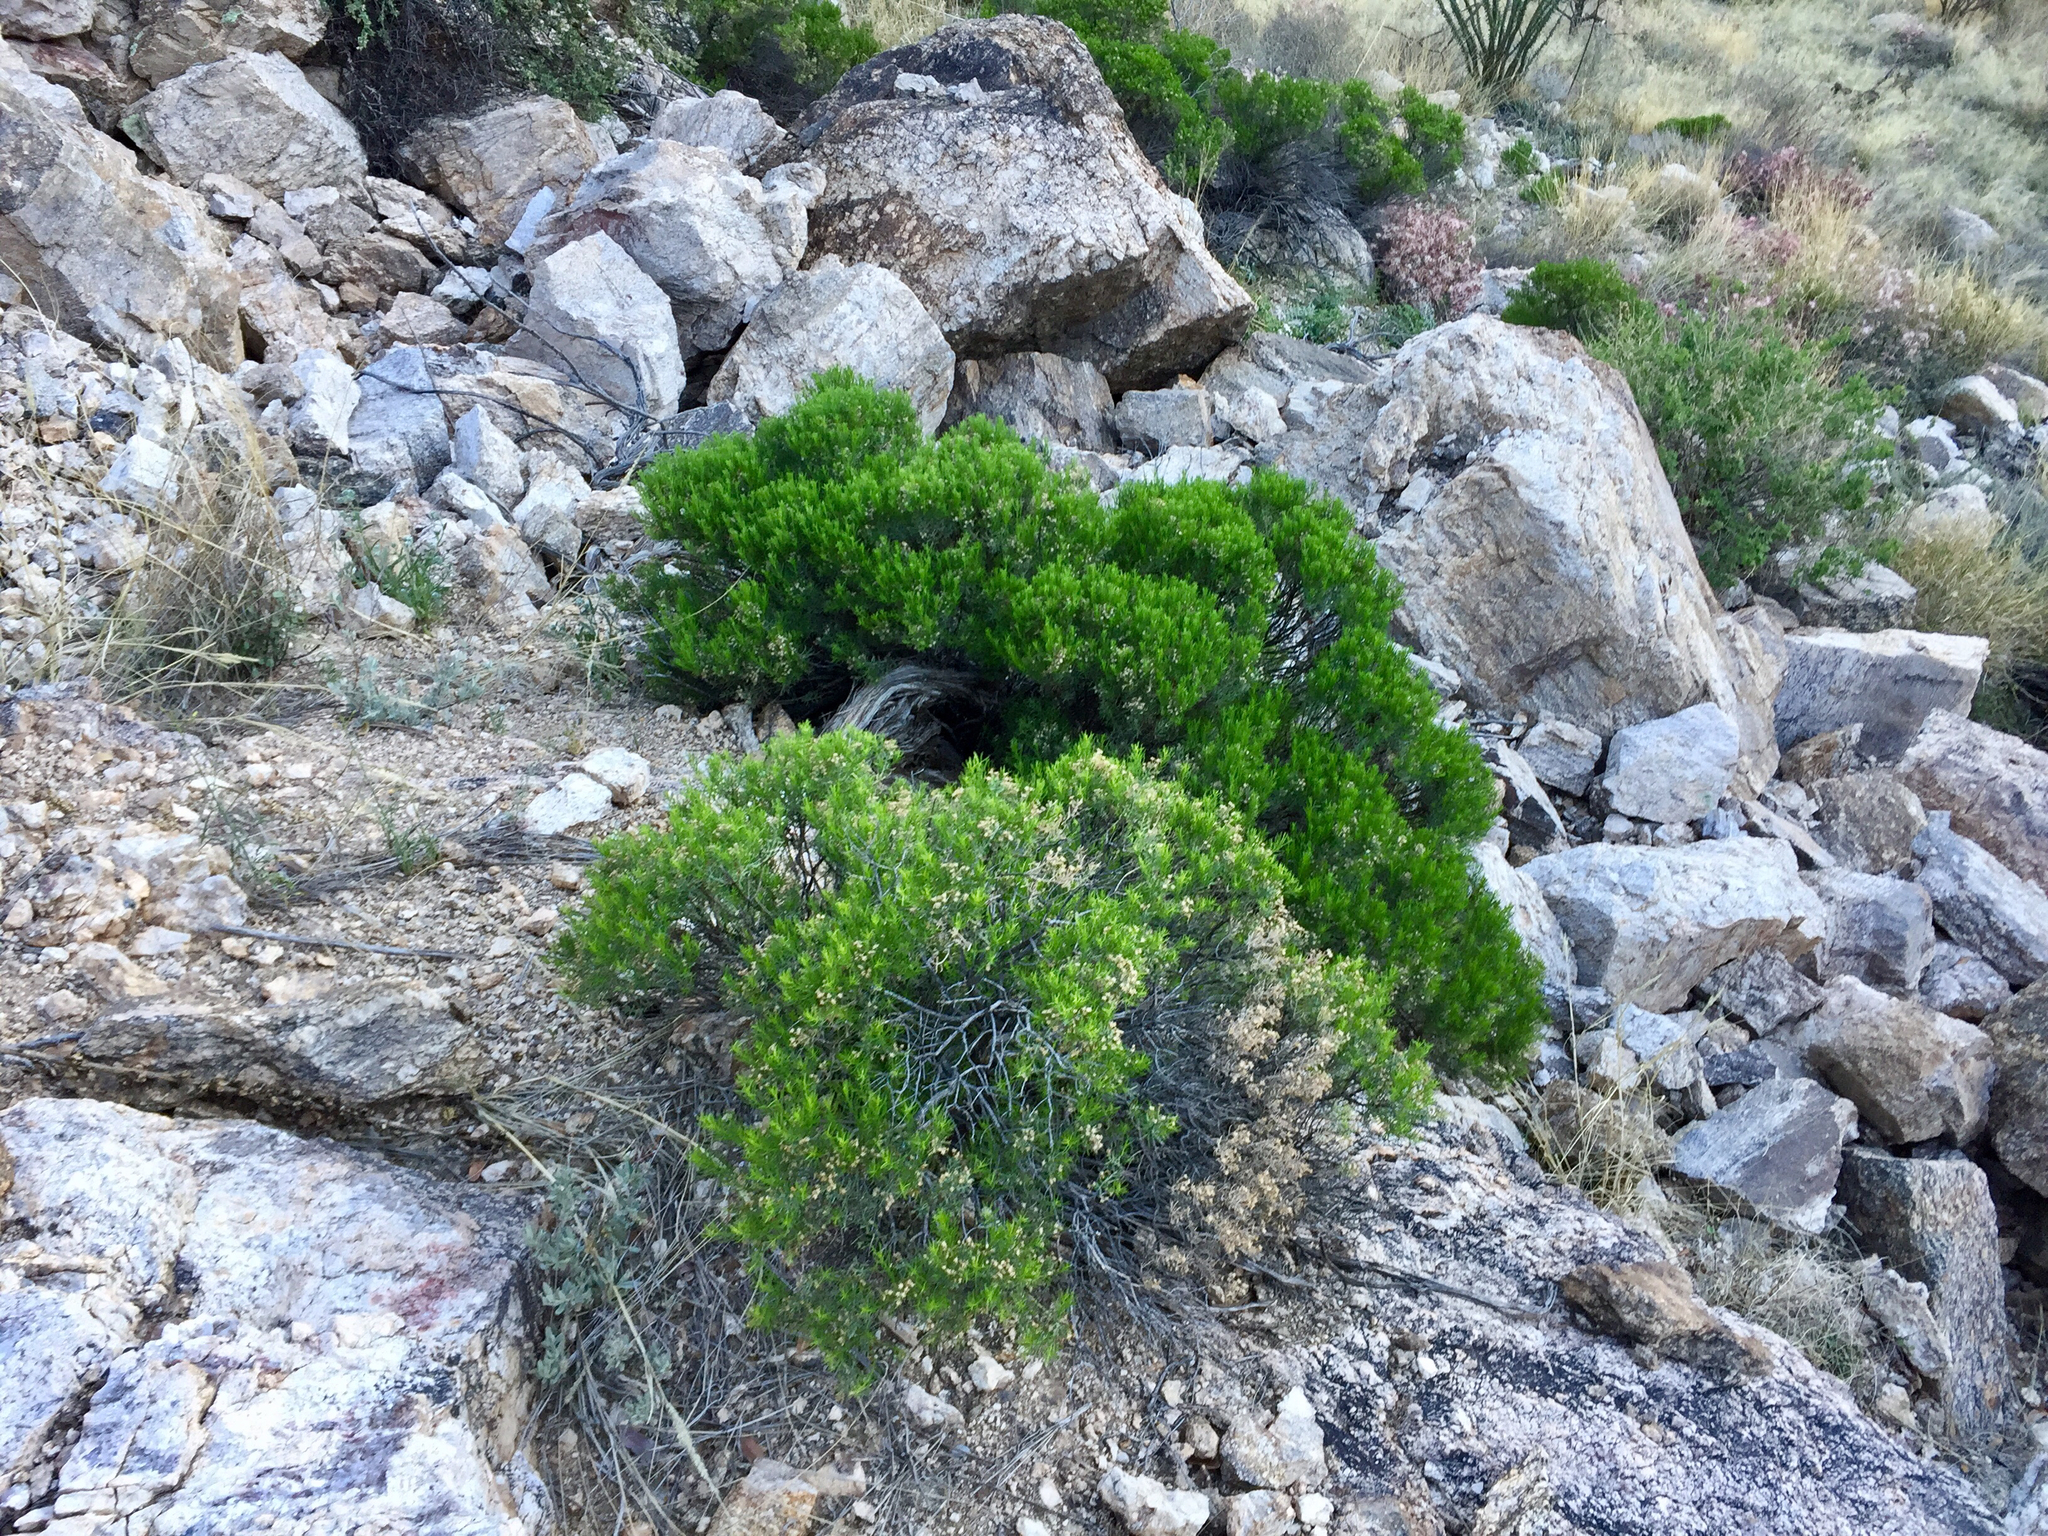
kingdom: Plantae
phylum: Tracheophyta
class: Magnoliopsida
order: Asterales
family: Asteraceae
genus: Ericameria
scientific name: Ericameria laricifolia
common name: Turpentine-bush
